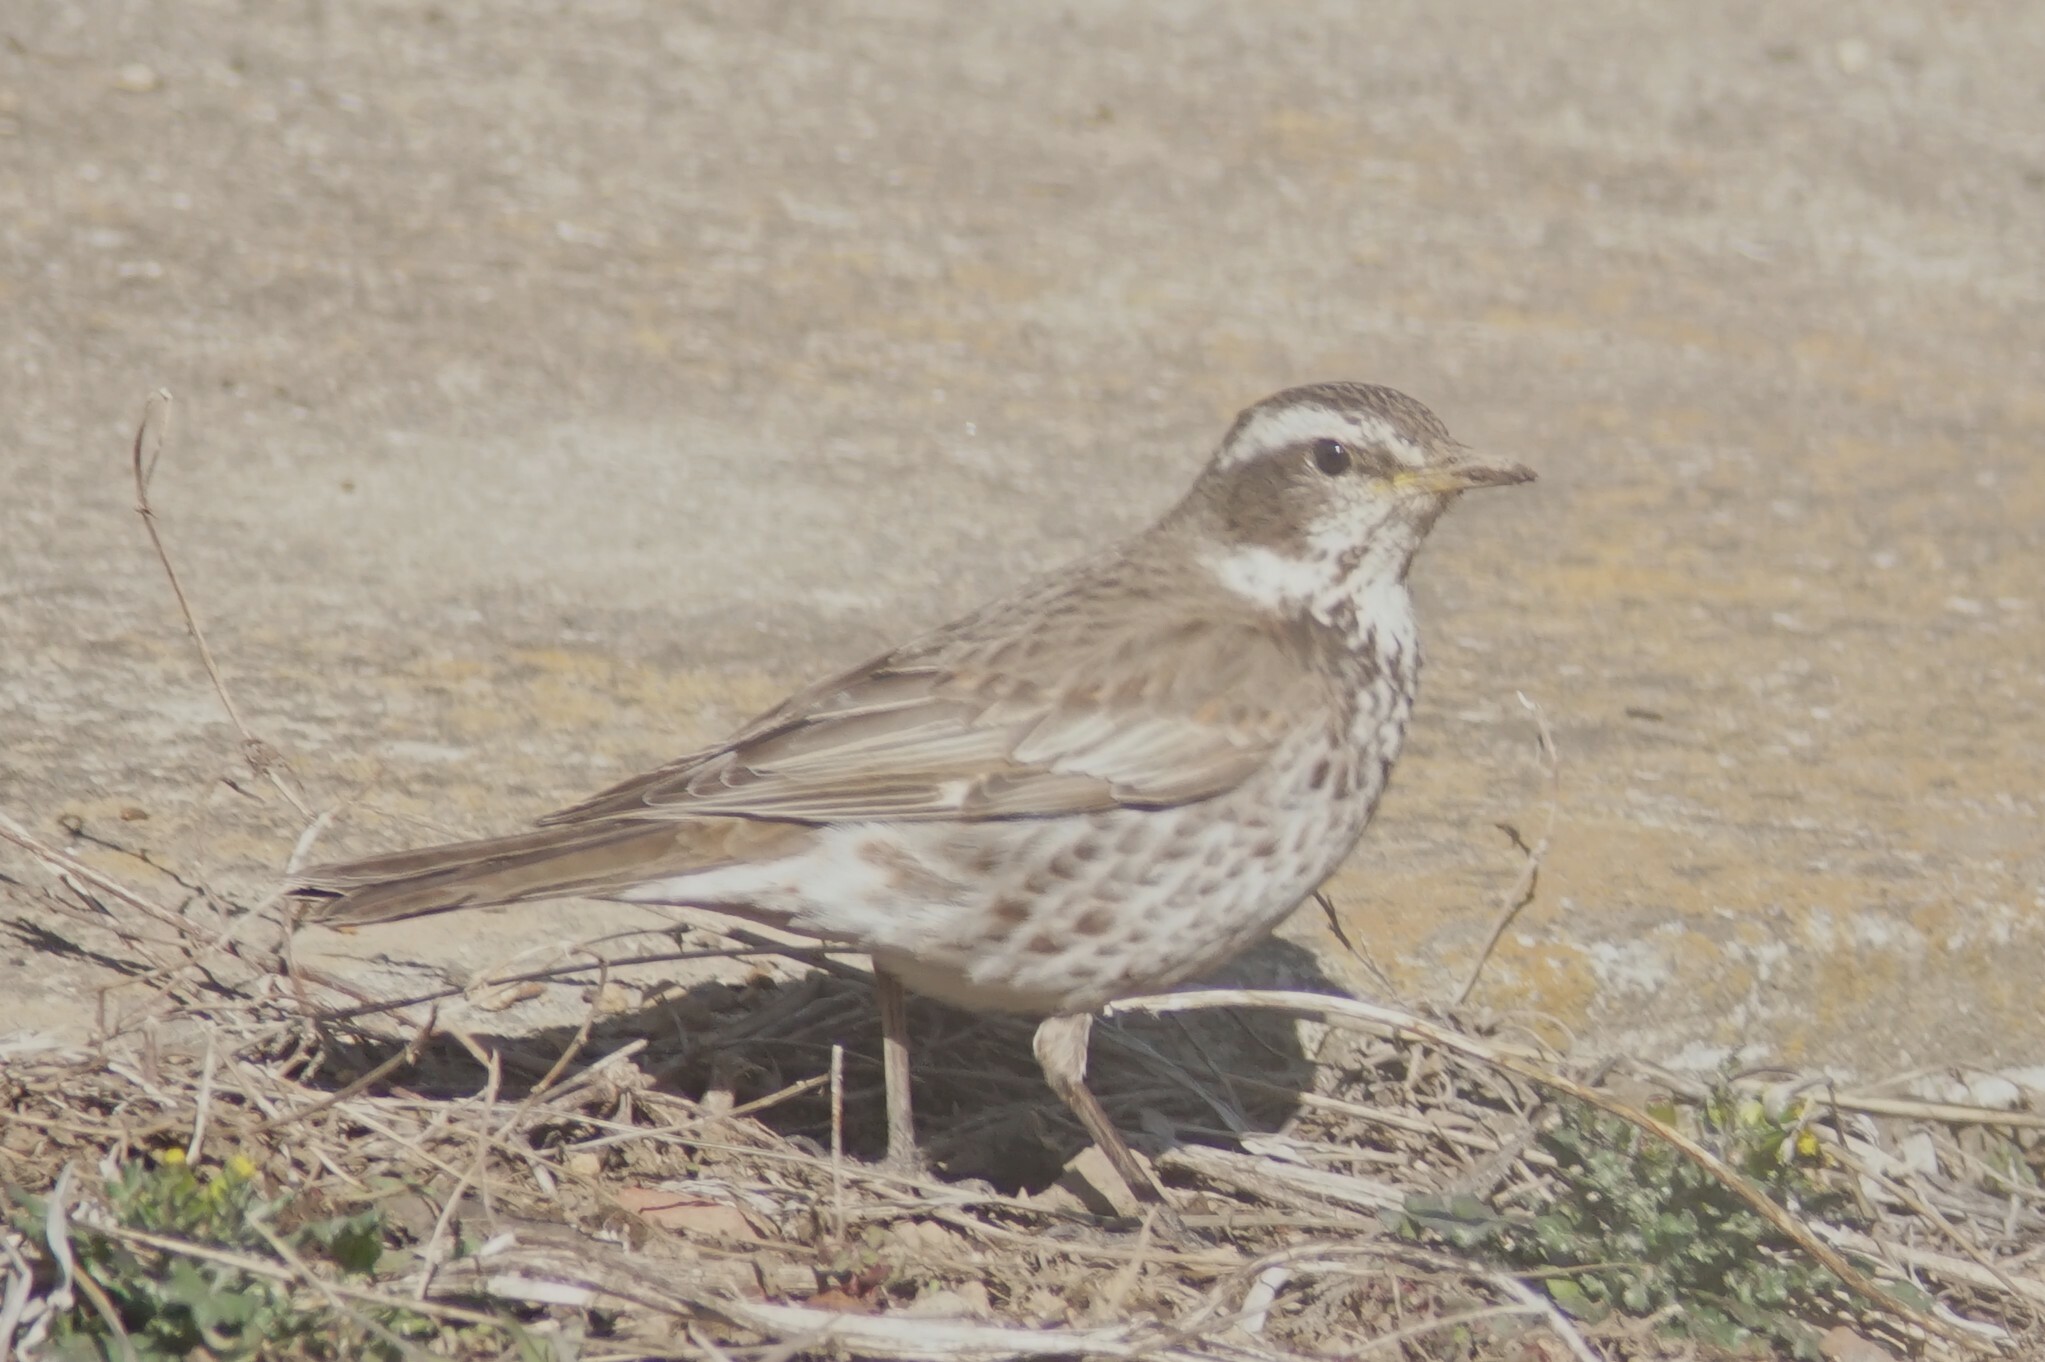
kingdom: Animalia
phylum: Chordata
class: Aves
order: Passeriformes
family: Turdidae
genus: Turdus
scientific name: Turdus eunomus
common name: Dusky thrush
